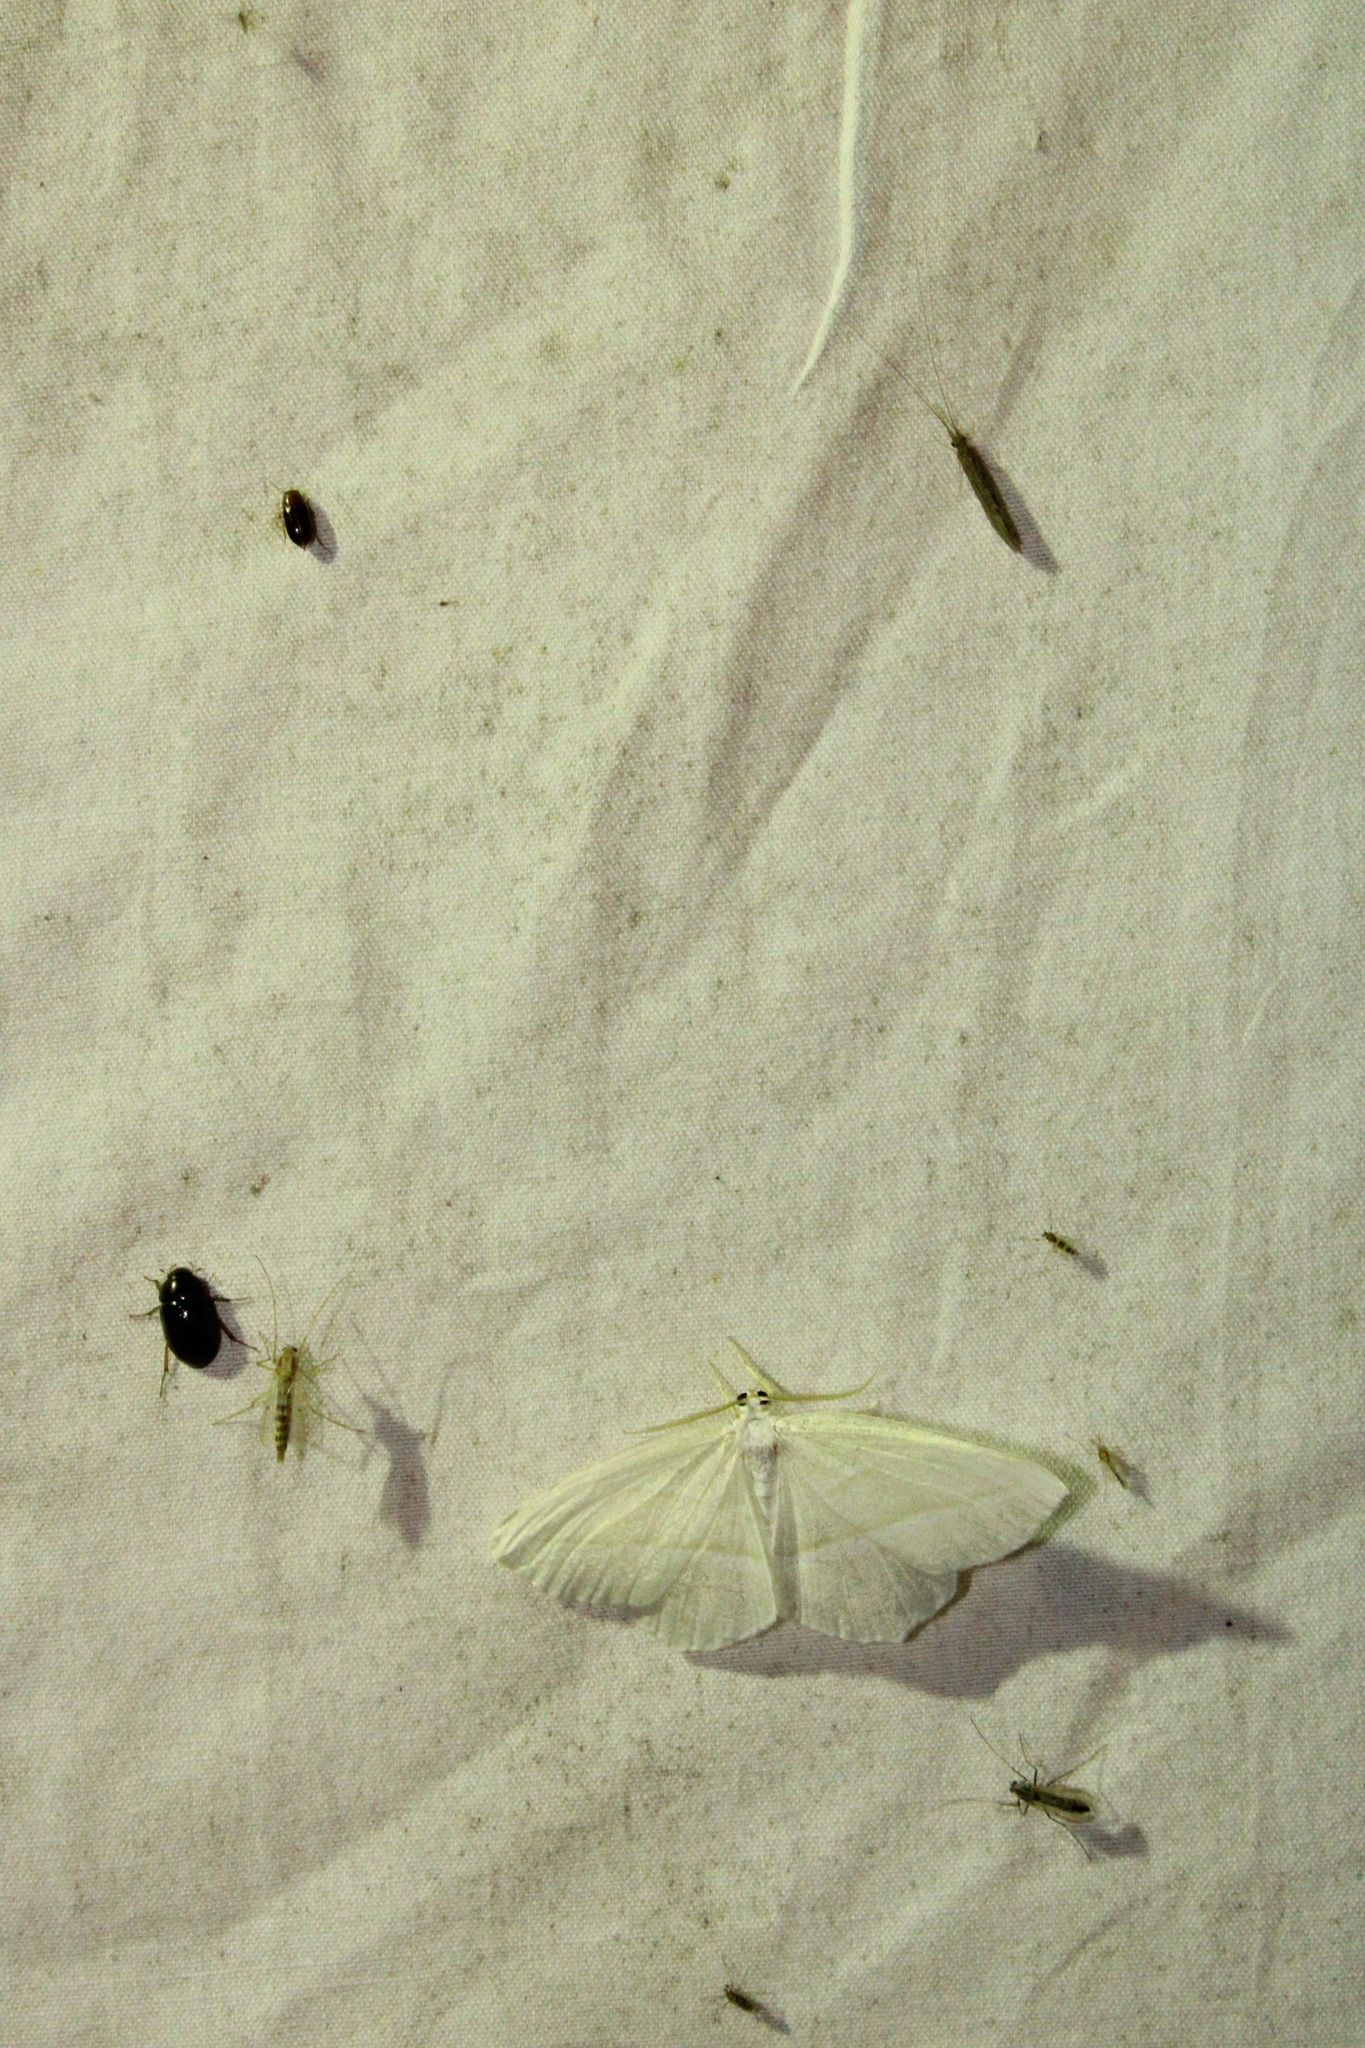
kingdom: Animalia
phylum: Arthropoda
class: Insecta
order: Lepidoptera
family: Geometridae
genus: Campaea
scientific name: Campaea perlata
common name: Fringed looper
